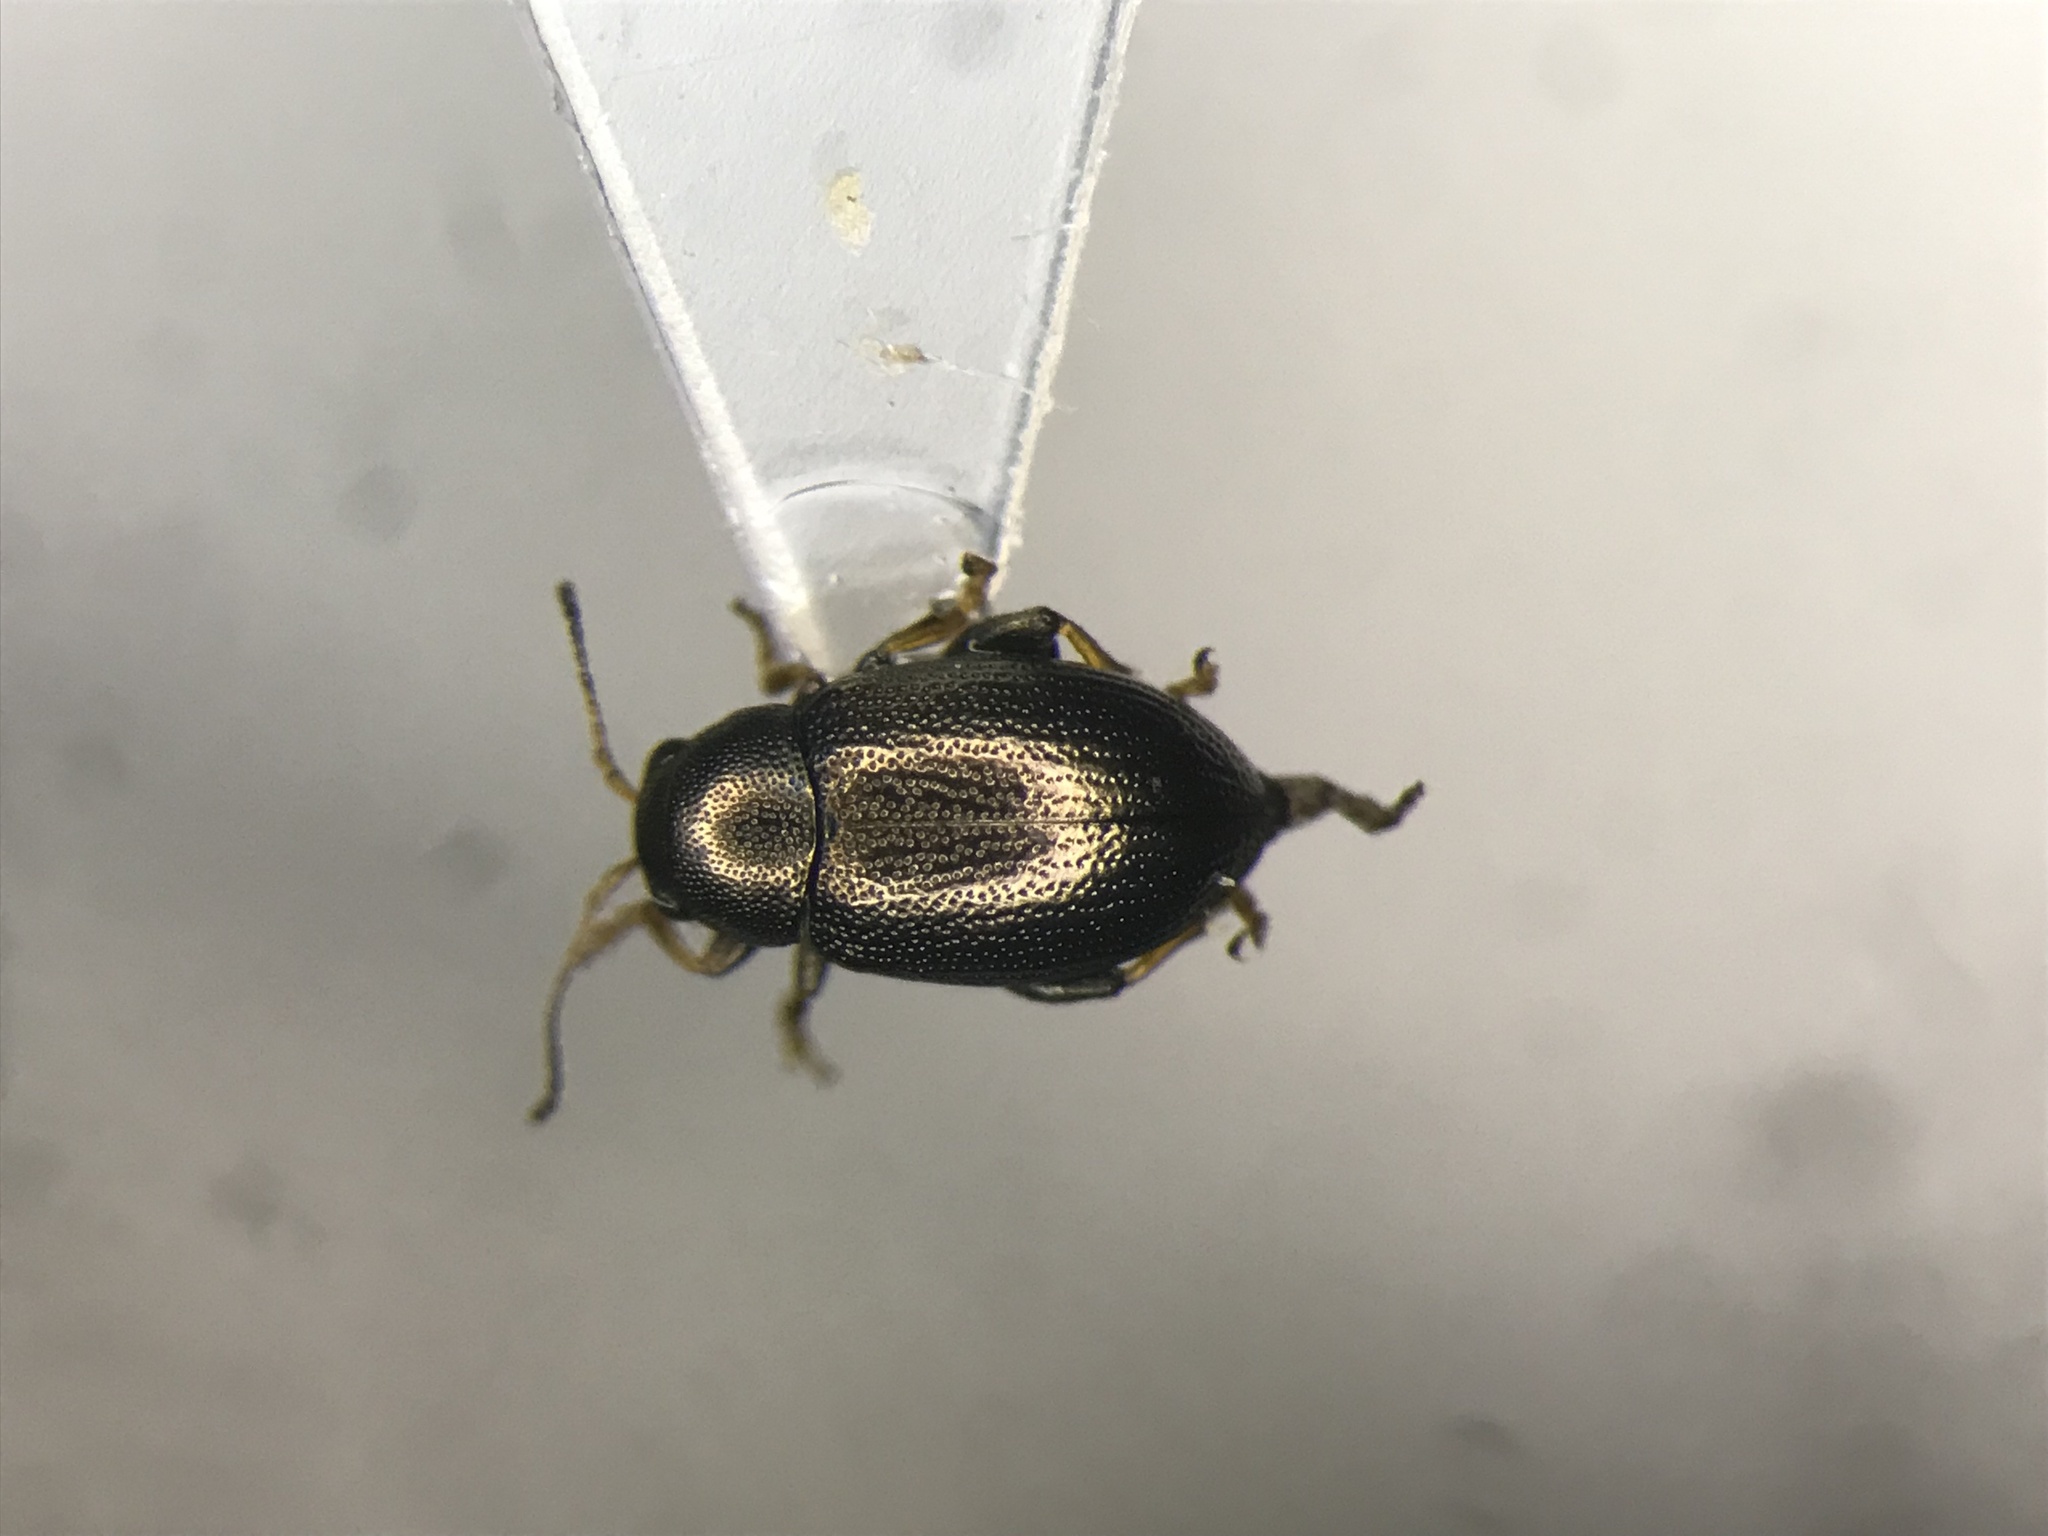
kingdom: Animalia
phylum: Arthropoda
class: Insecta
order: Coleoptera
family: Chrysomelidae
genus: Chaetocnema
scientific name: Chaetocnema borealis
